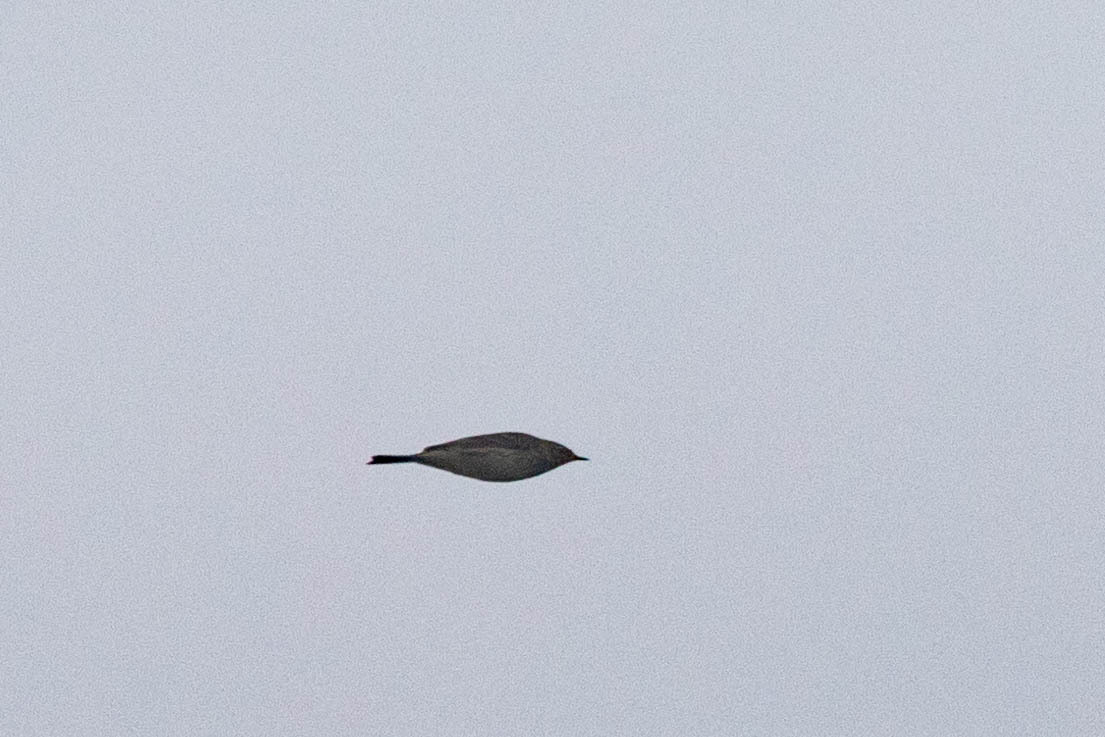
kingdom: Animalia
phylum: Chordata
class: Aves
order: Passeriformes
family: Motacillidae
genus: Anthus
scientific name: Anthus rubescens
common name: Buff-bellied pipit
